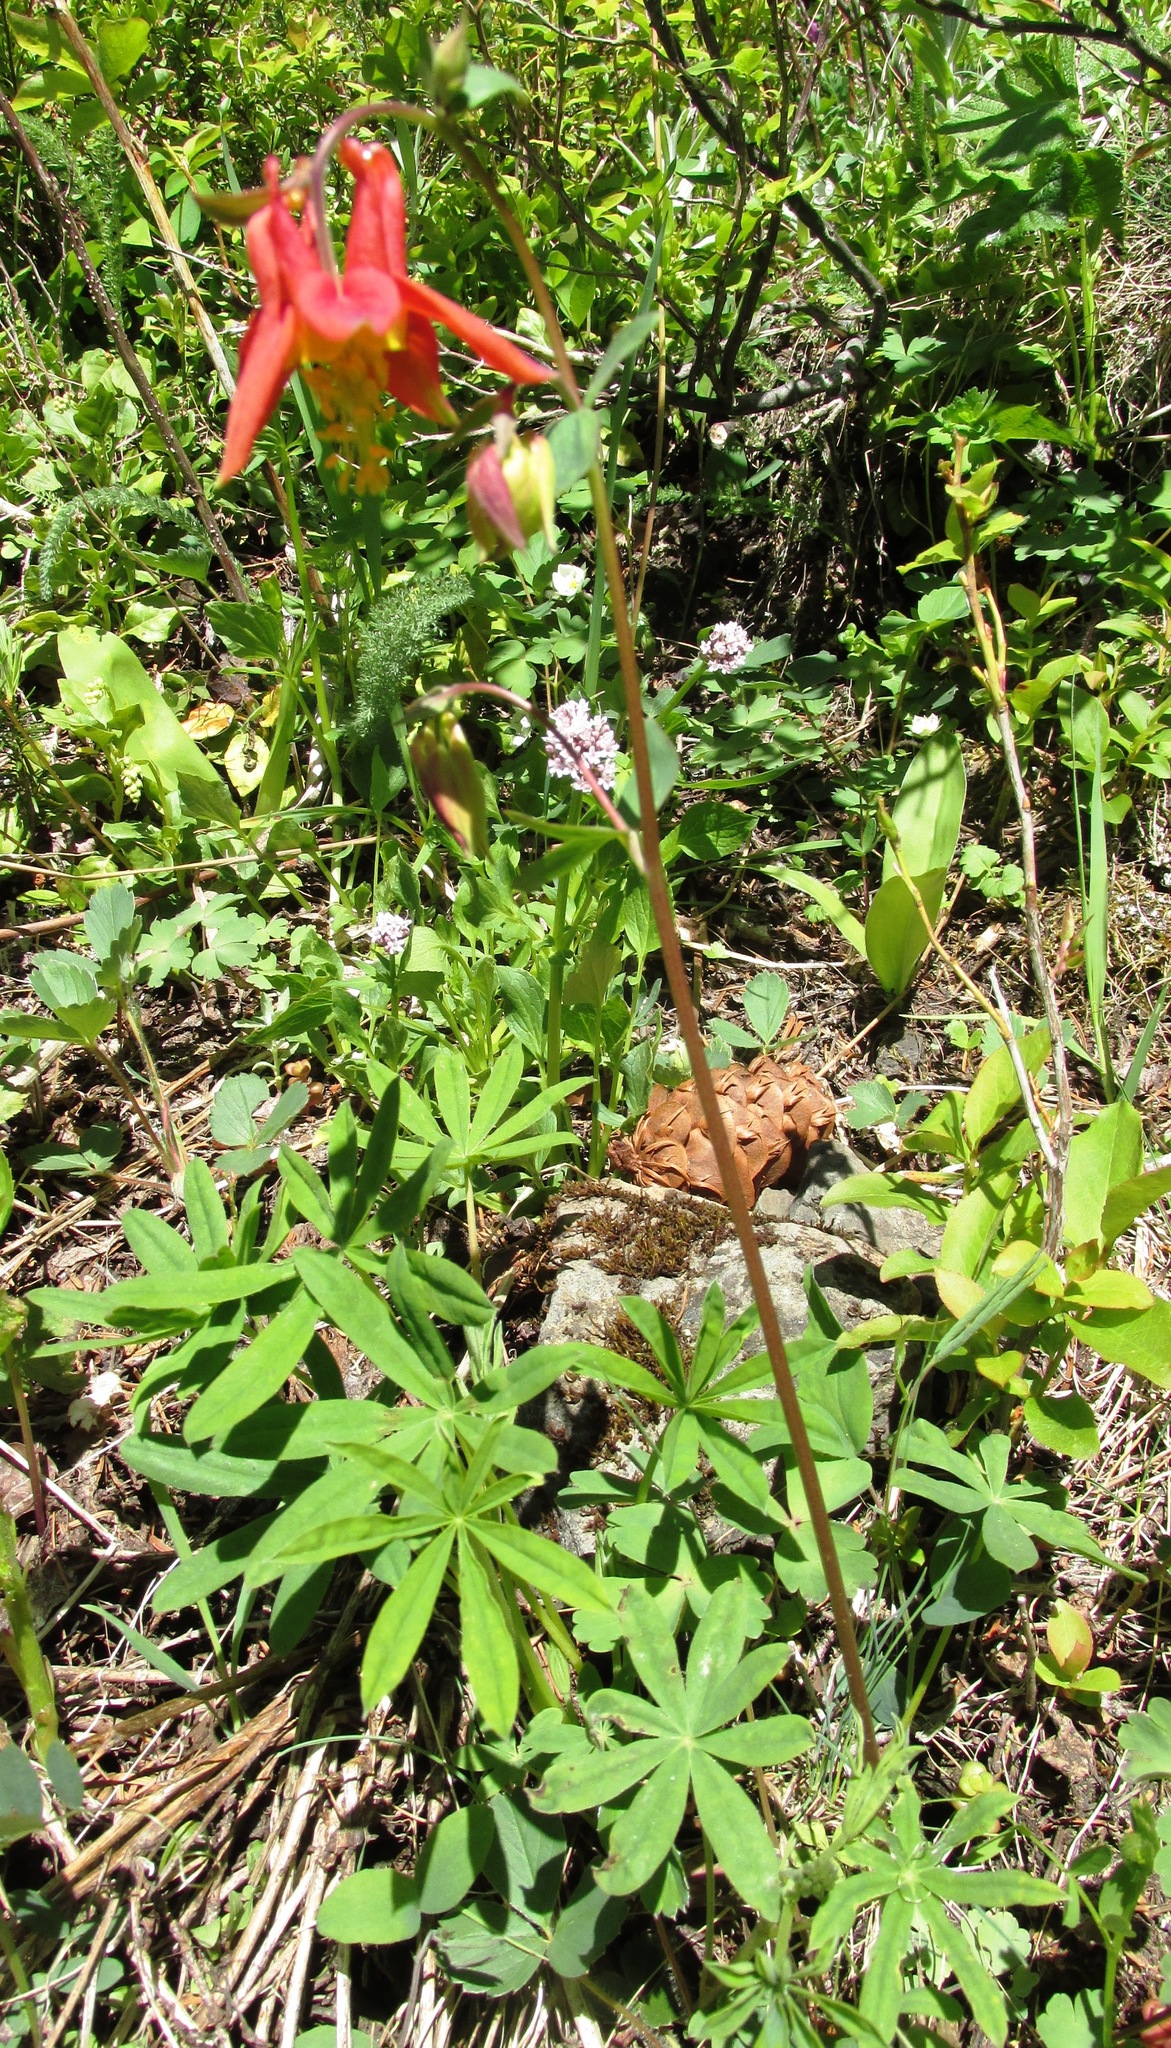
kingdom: Plantae
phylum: Tracheophyta
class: Magnoliopsida
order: Ranunculales
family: Ranunculaceae
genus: Aquilegia
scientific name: Aquilegia formosa
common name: Sitka columbine
